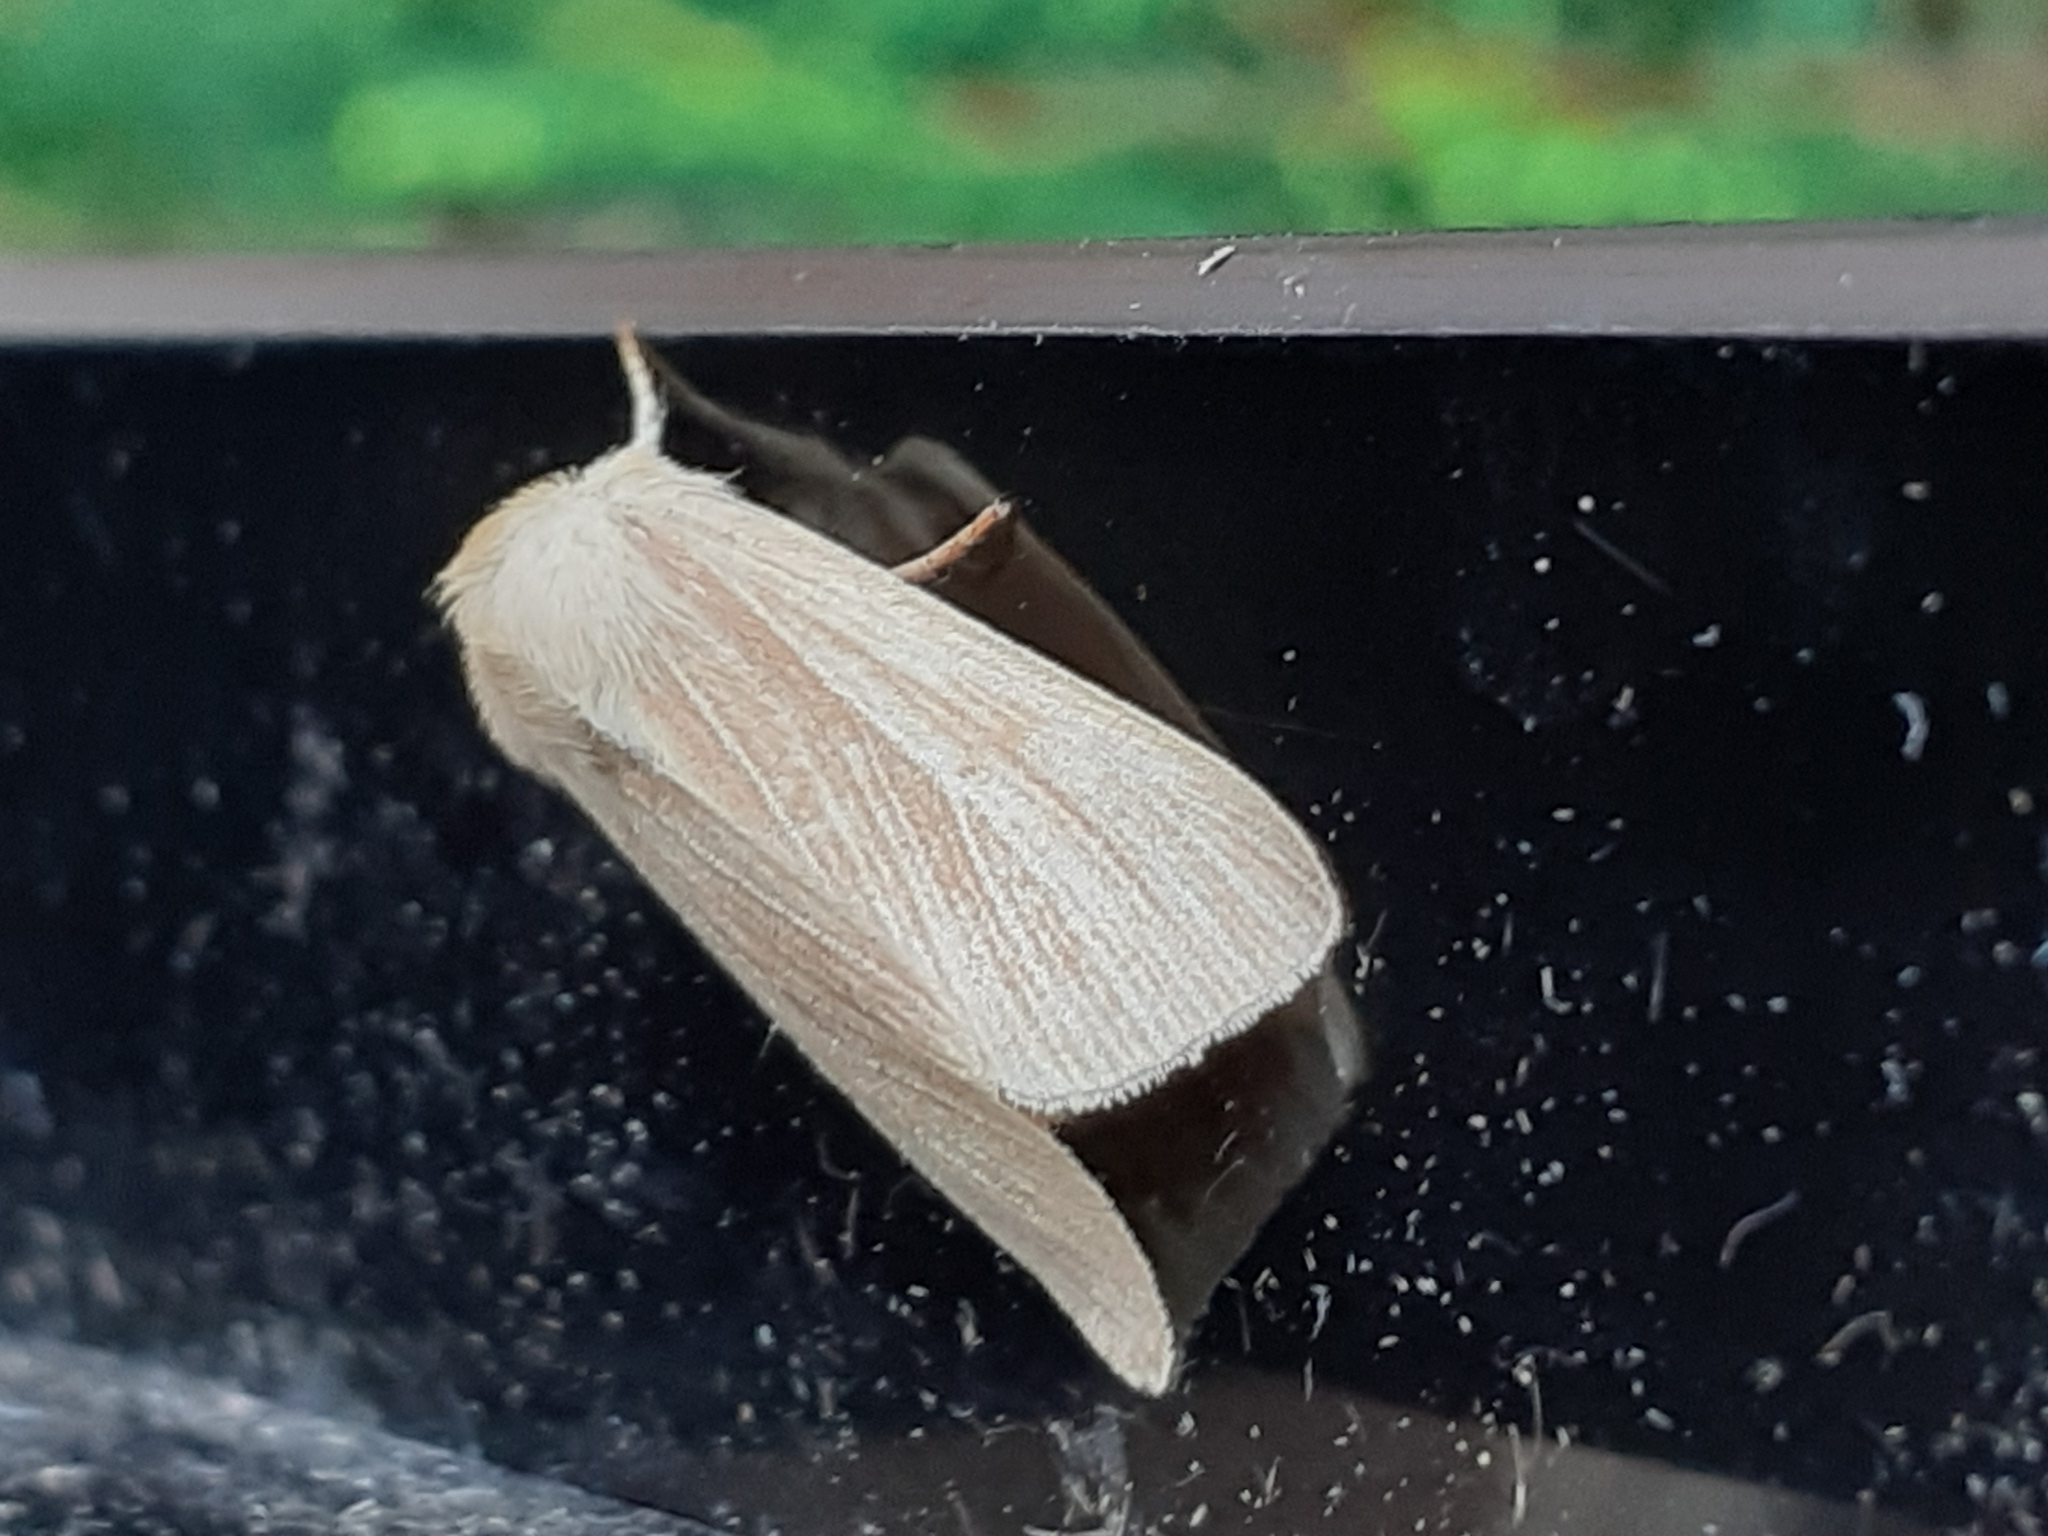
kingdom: Animalia
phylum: Arthropoda
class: Insecta
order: Lepidoptera
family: Noctuidae
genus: Mythimna
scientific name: Mythimna pallens
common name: Common wainscot
